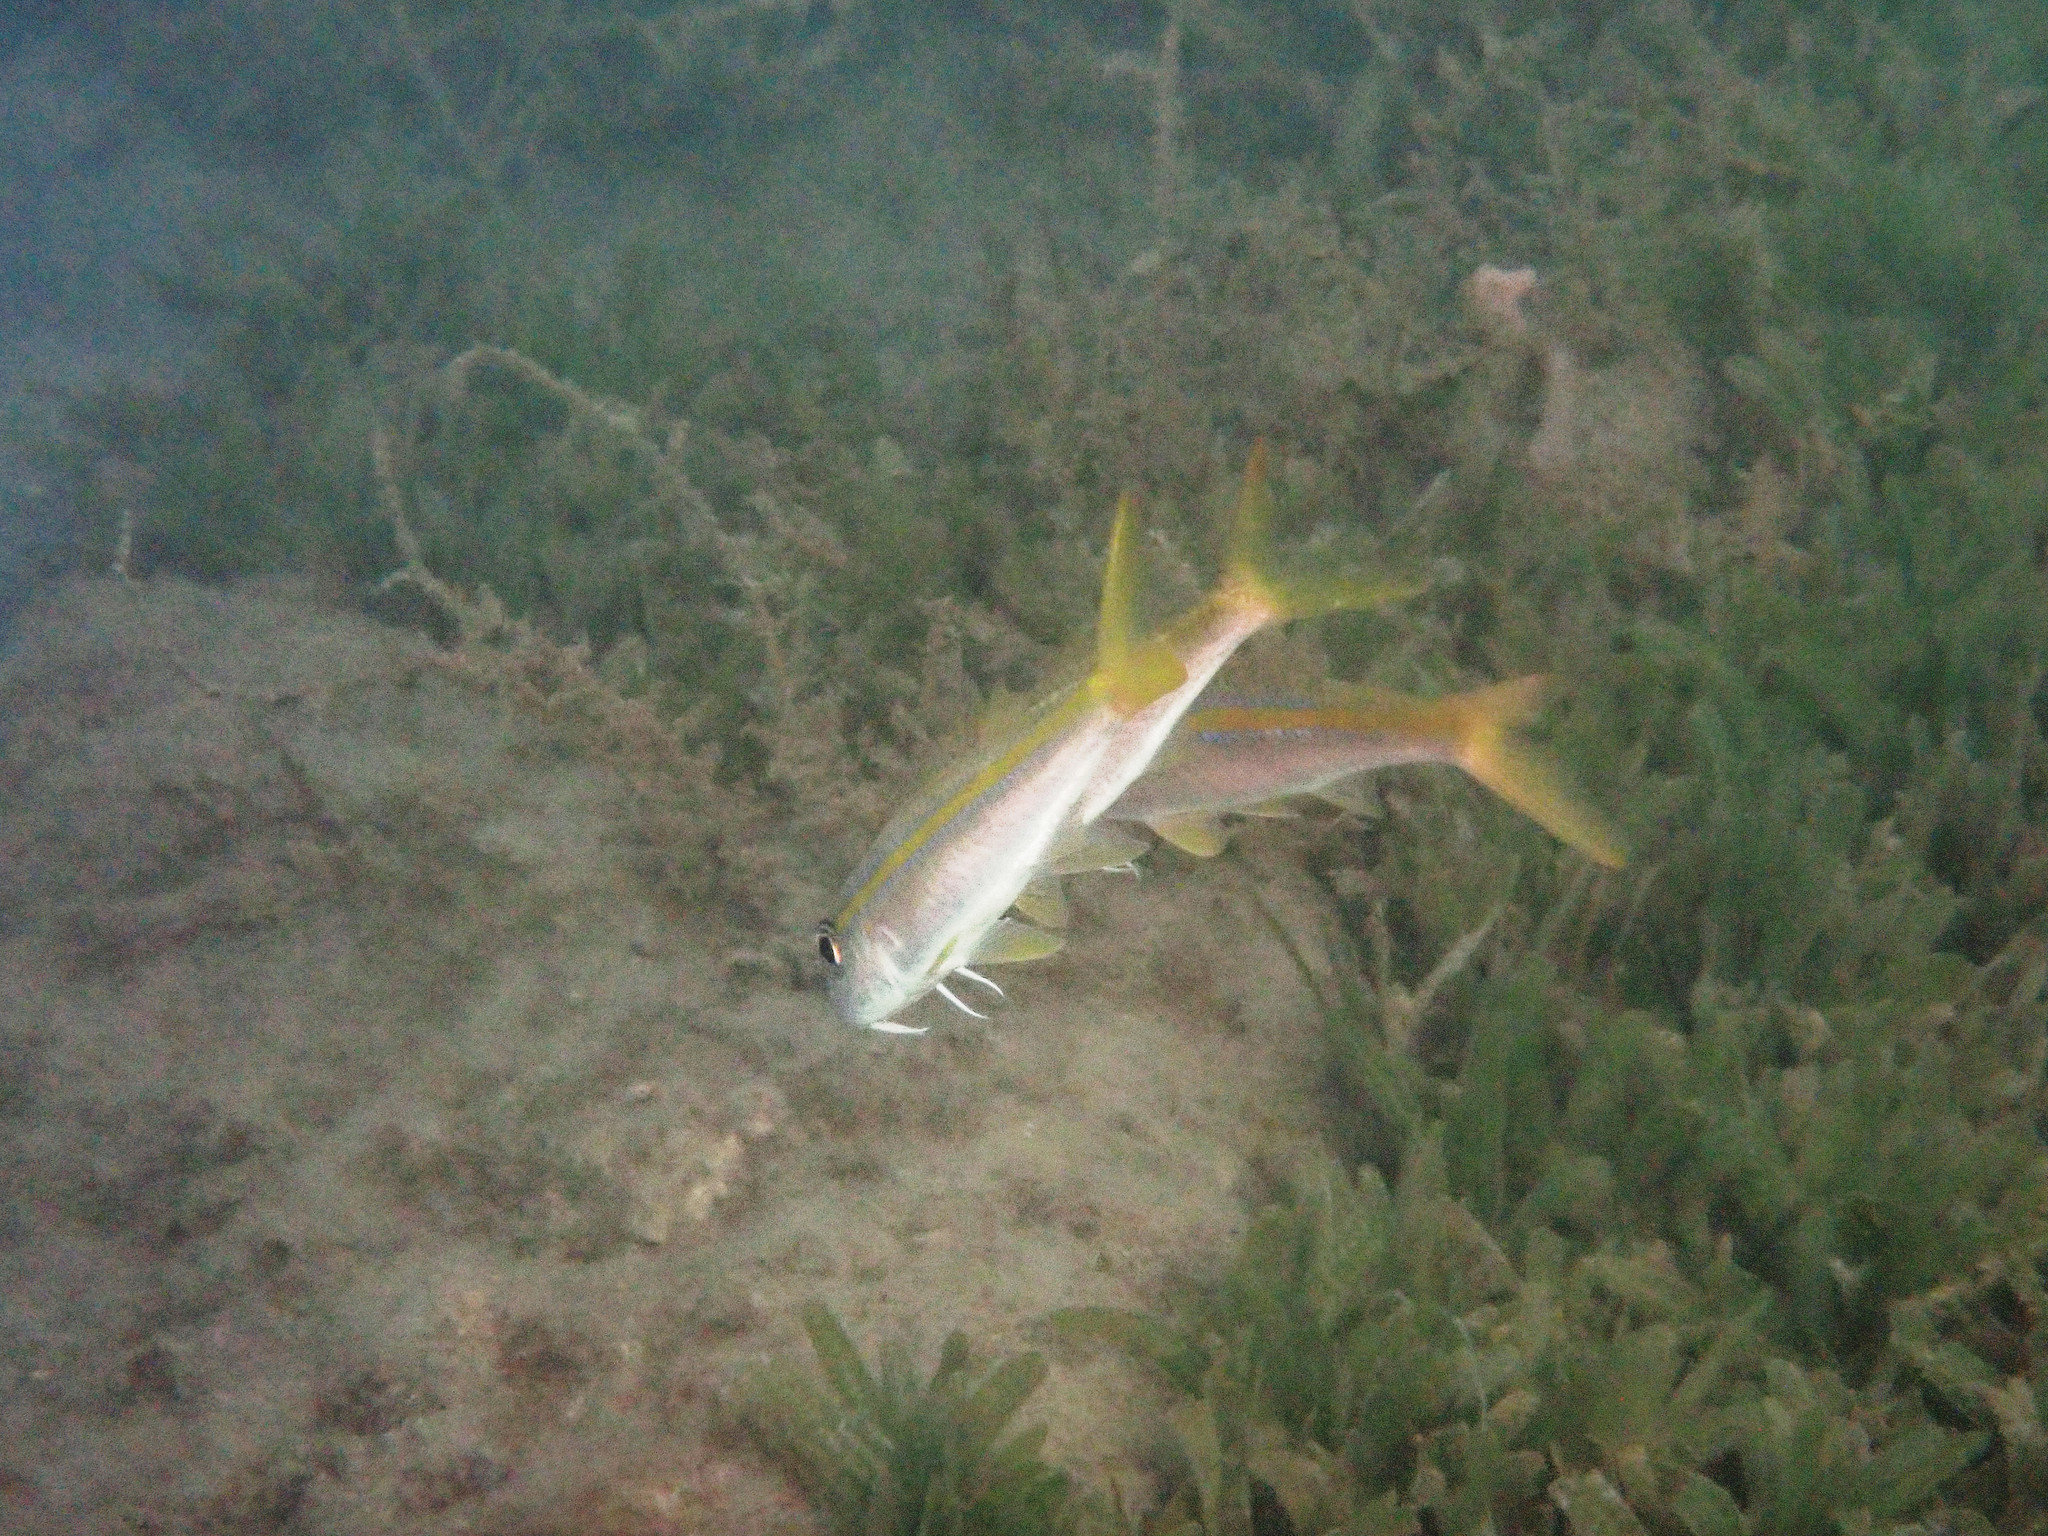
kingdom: Animalia
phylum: Chordata
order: Perciformes
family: Mullidae
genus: Mulloidichthys
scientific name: Mulloidichthys martinicus
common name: Yellow goatfish
